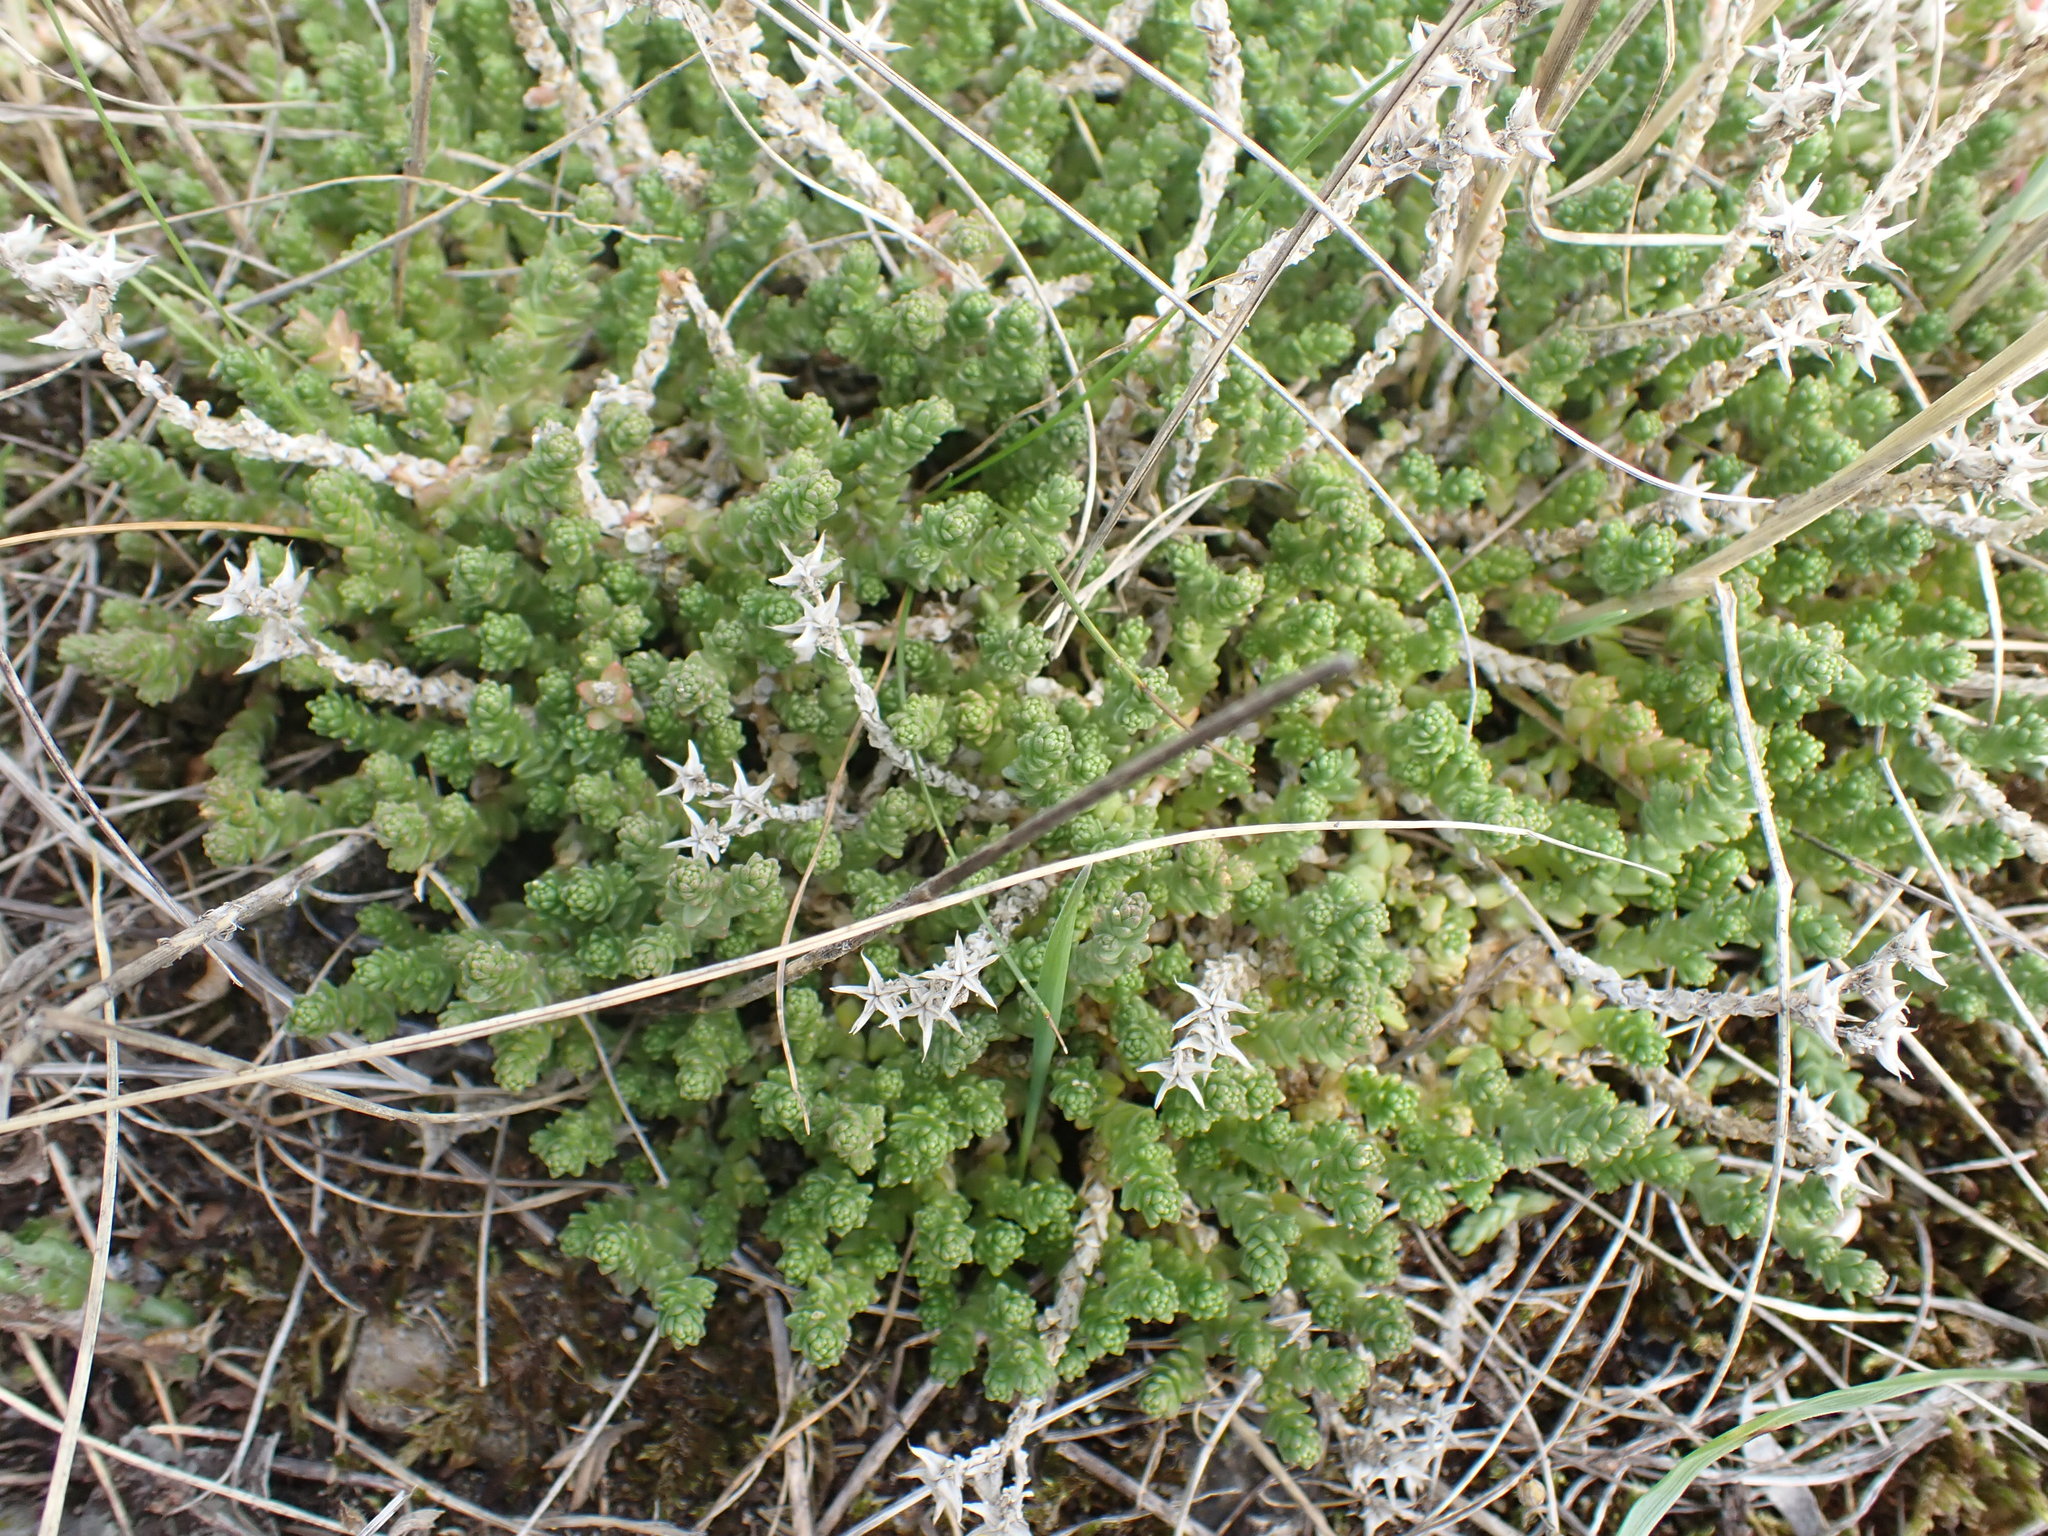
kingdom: Plantae
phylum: Tracheophyta
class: Magnoliopsida
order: Saxifragales
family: Crassulaceae
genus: Sedum
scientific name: Sedum acre
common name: Biting stonecrop
